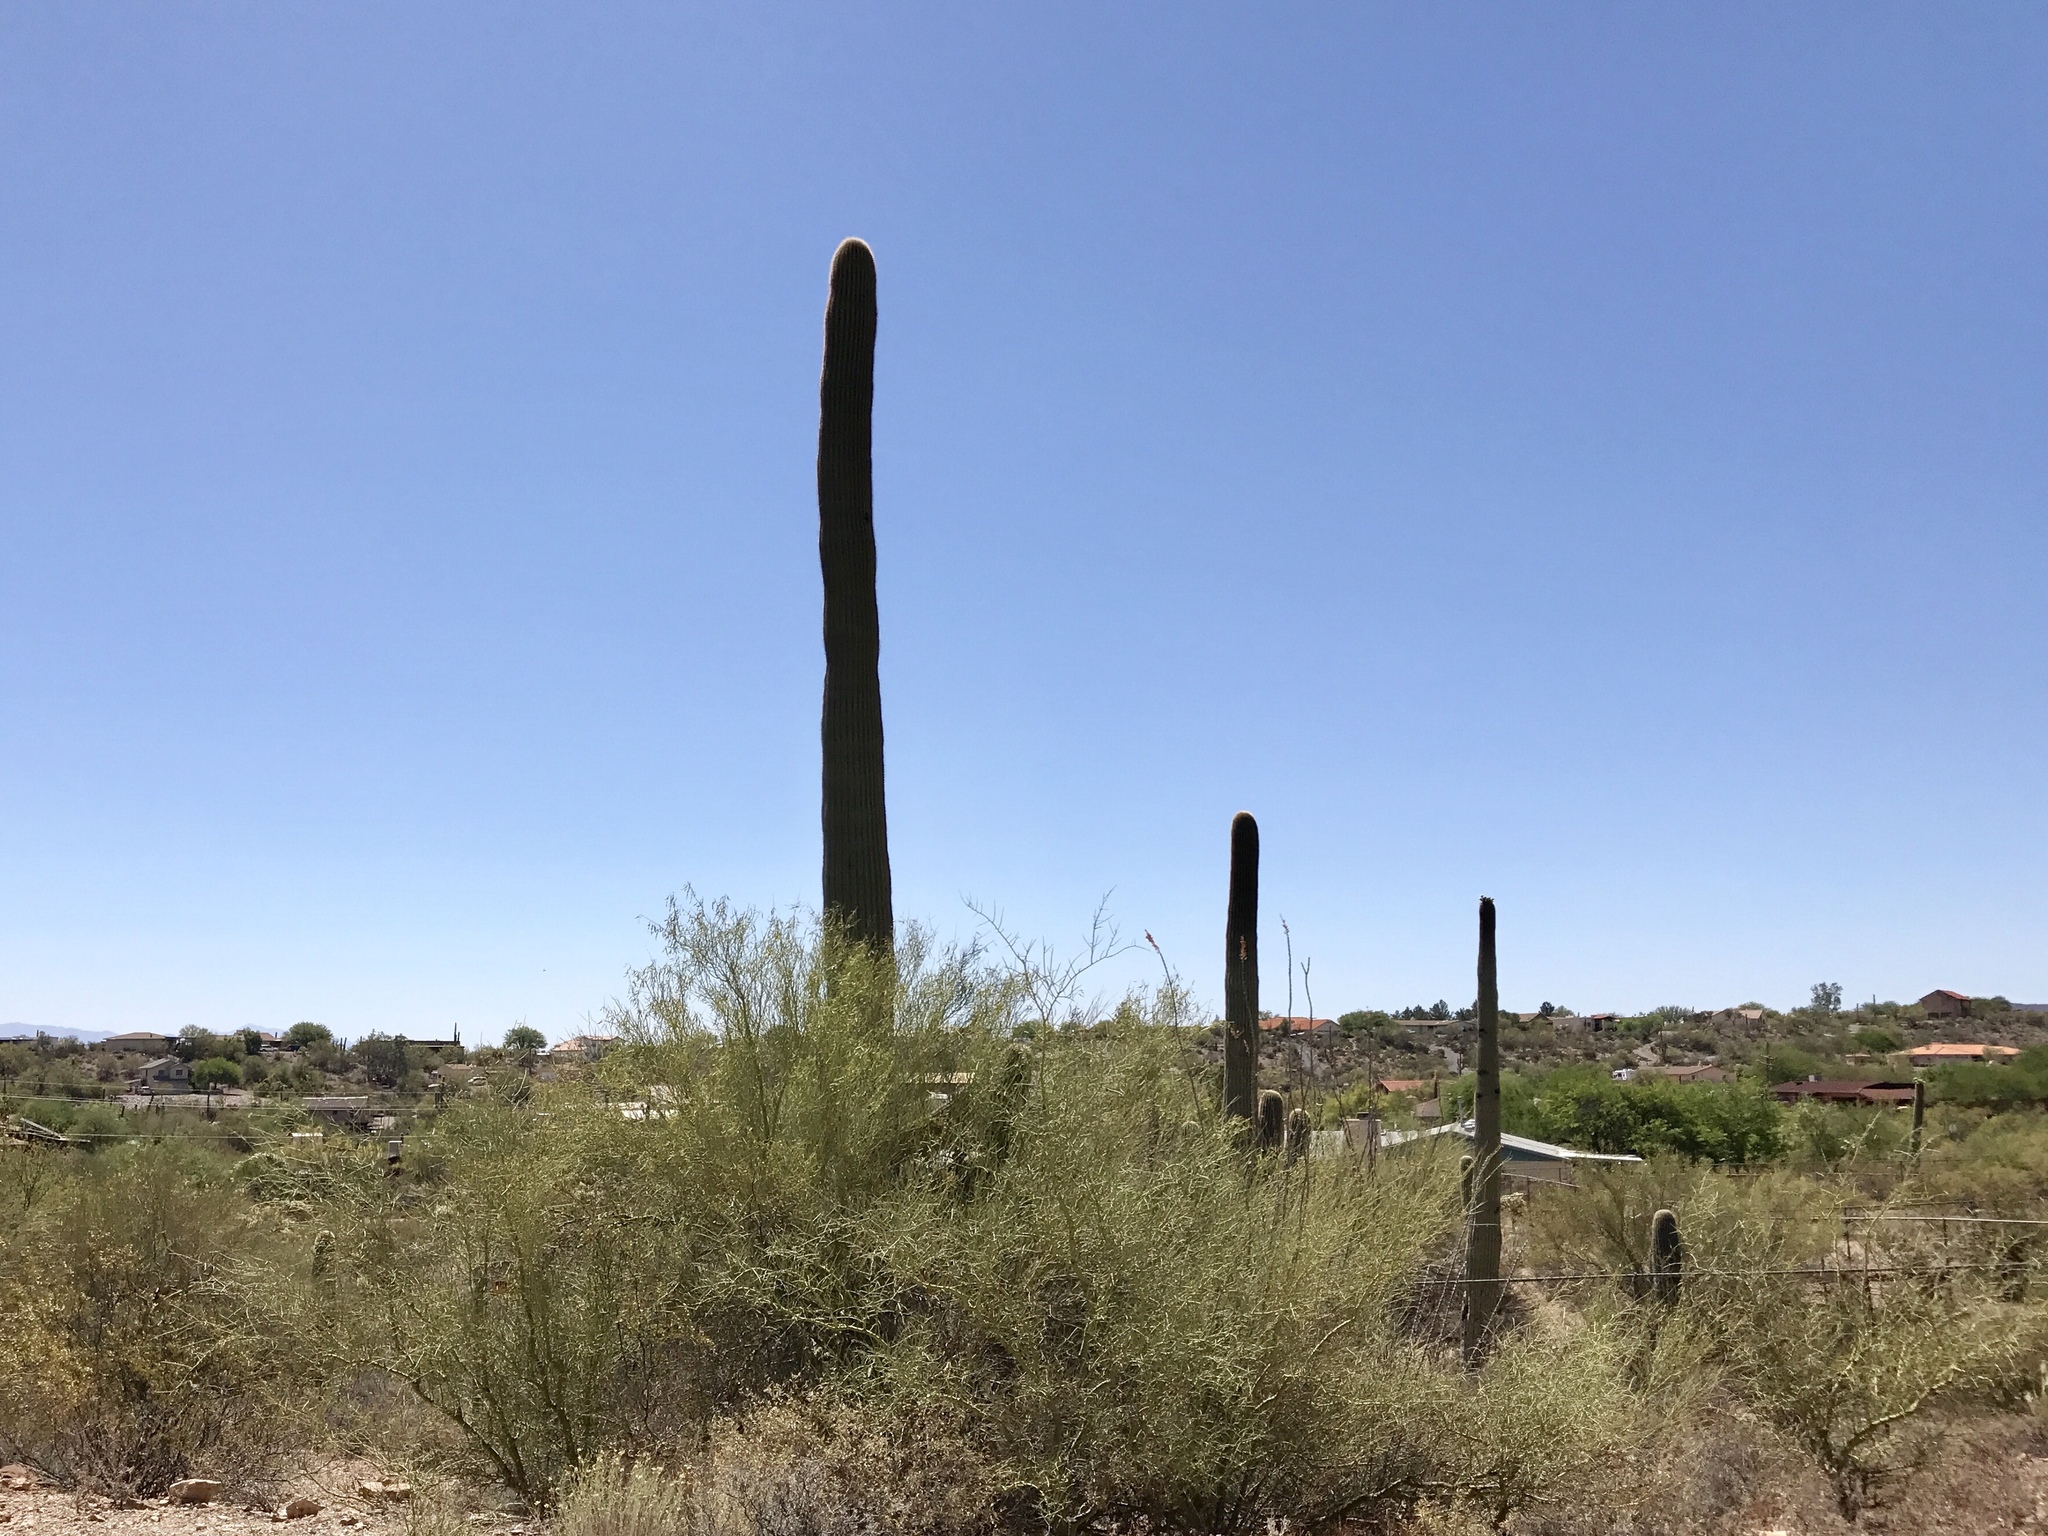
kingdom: Plantae
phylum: Tracheophyta
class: Magnoliopsida
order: Caryophyllales
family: Cactaceae
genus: Carnegiea
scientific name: Carnegiea gigantea
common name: Saguaro
